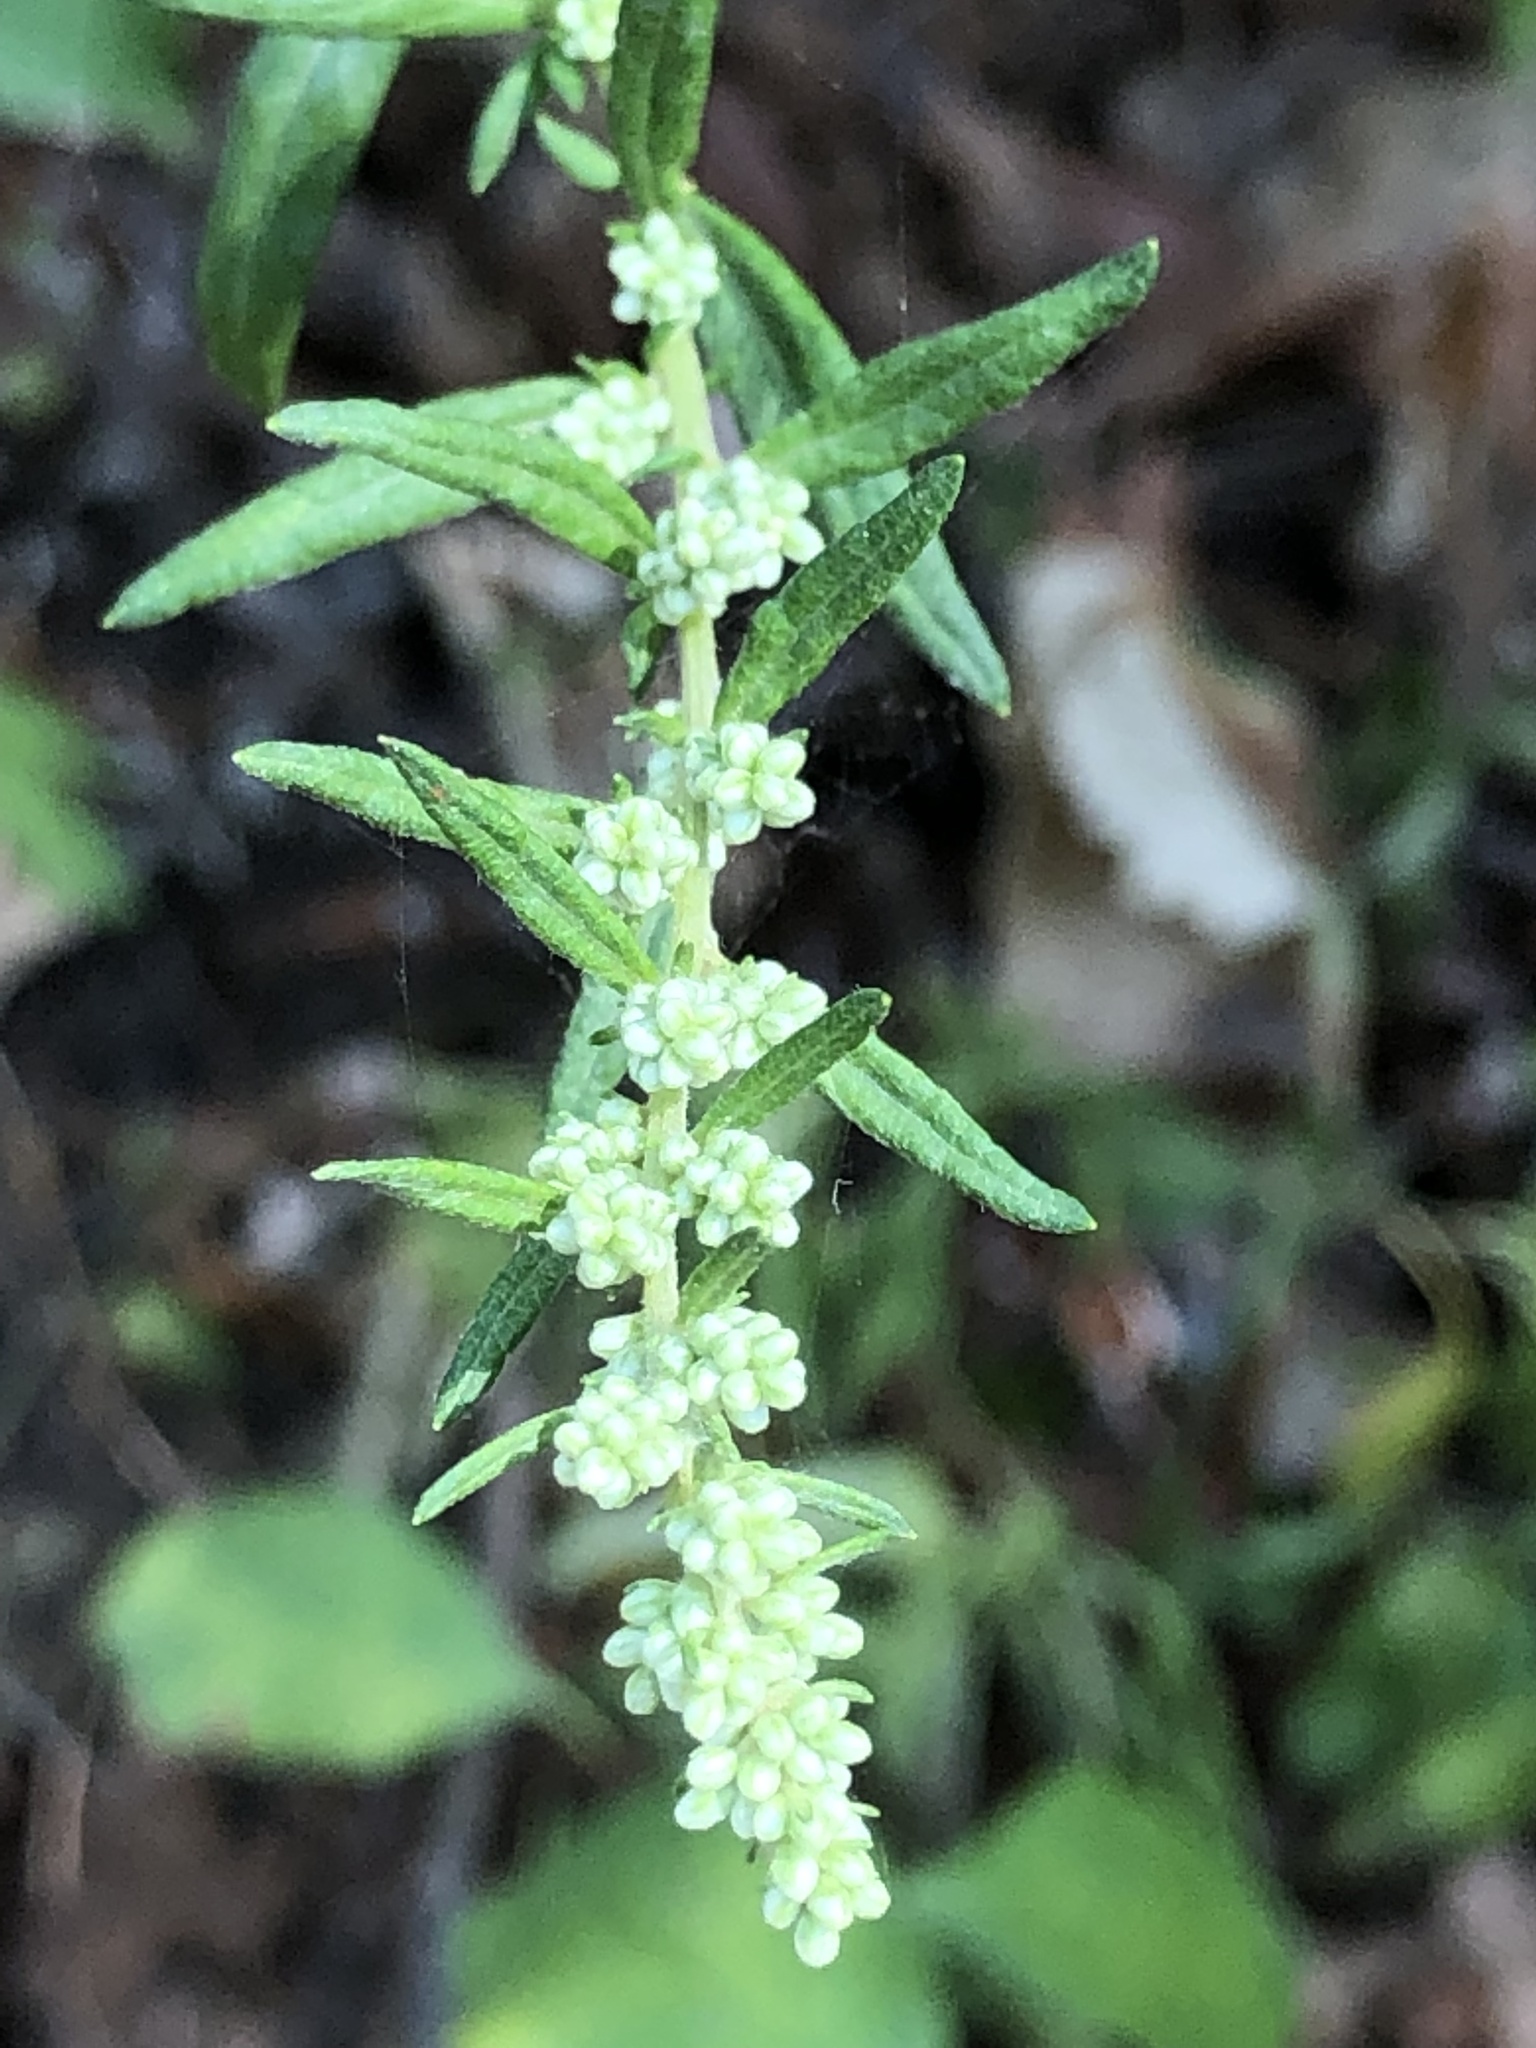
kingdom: Plantae
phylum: Tracheophyta
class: Magnoliopsida
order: Asterales
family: Asteraceae
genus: Artemisia
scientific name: Artemisia vulgaris
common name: Mugwort
